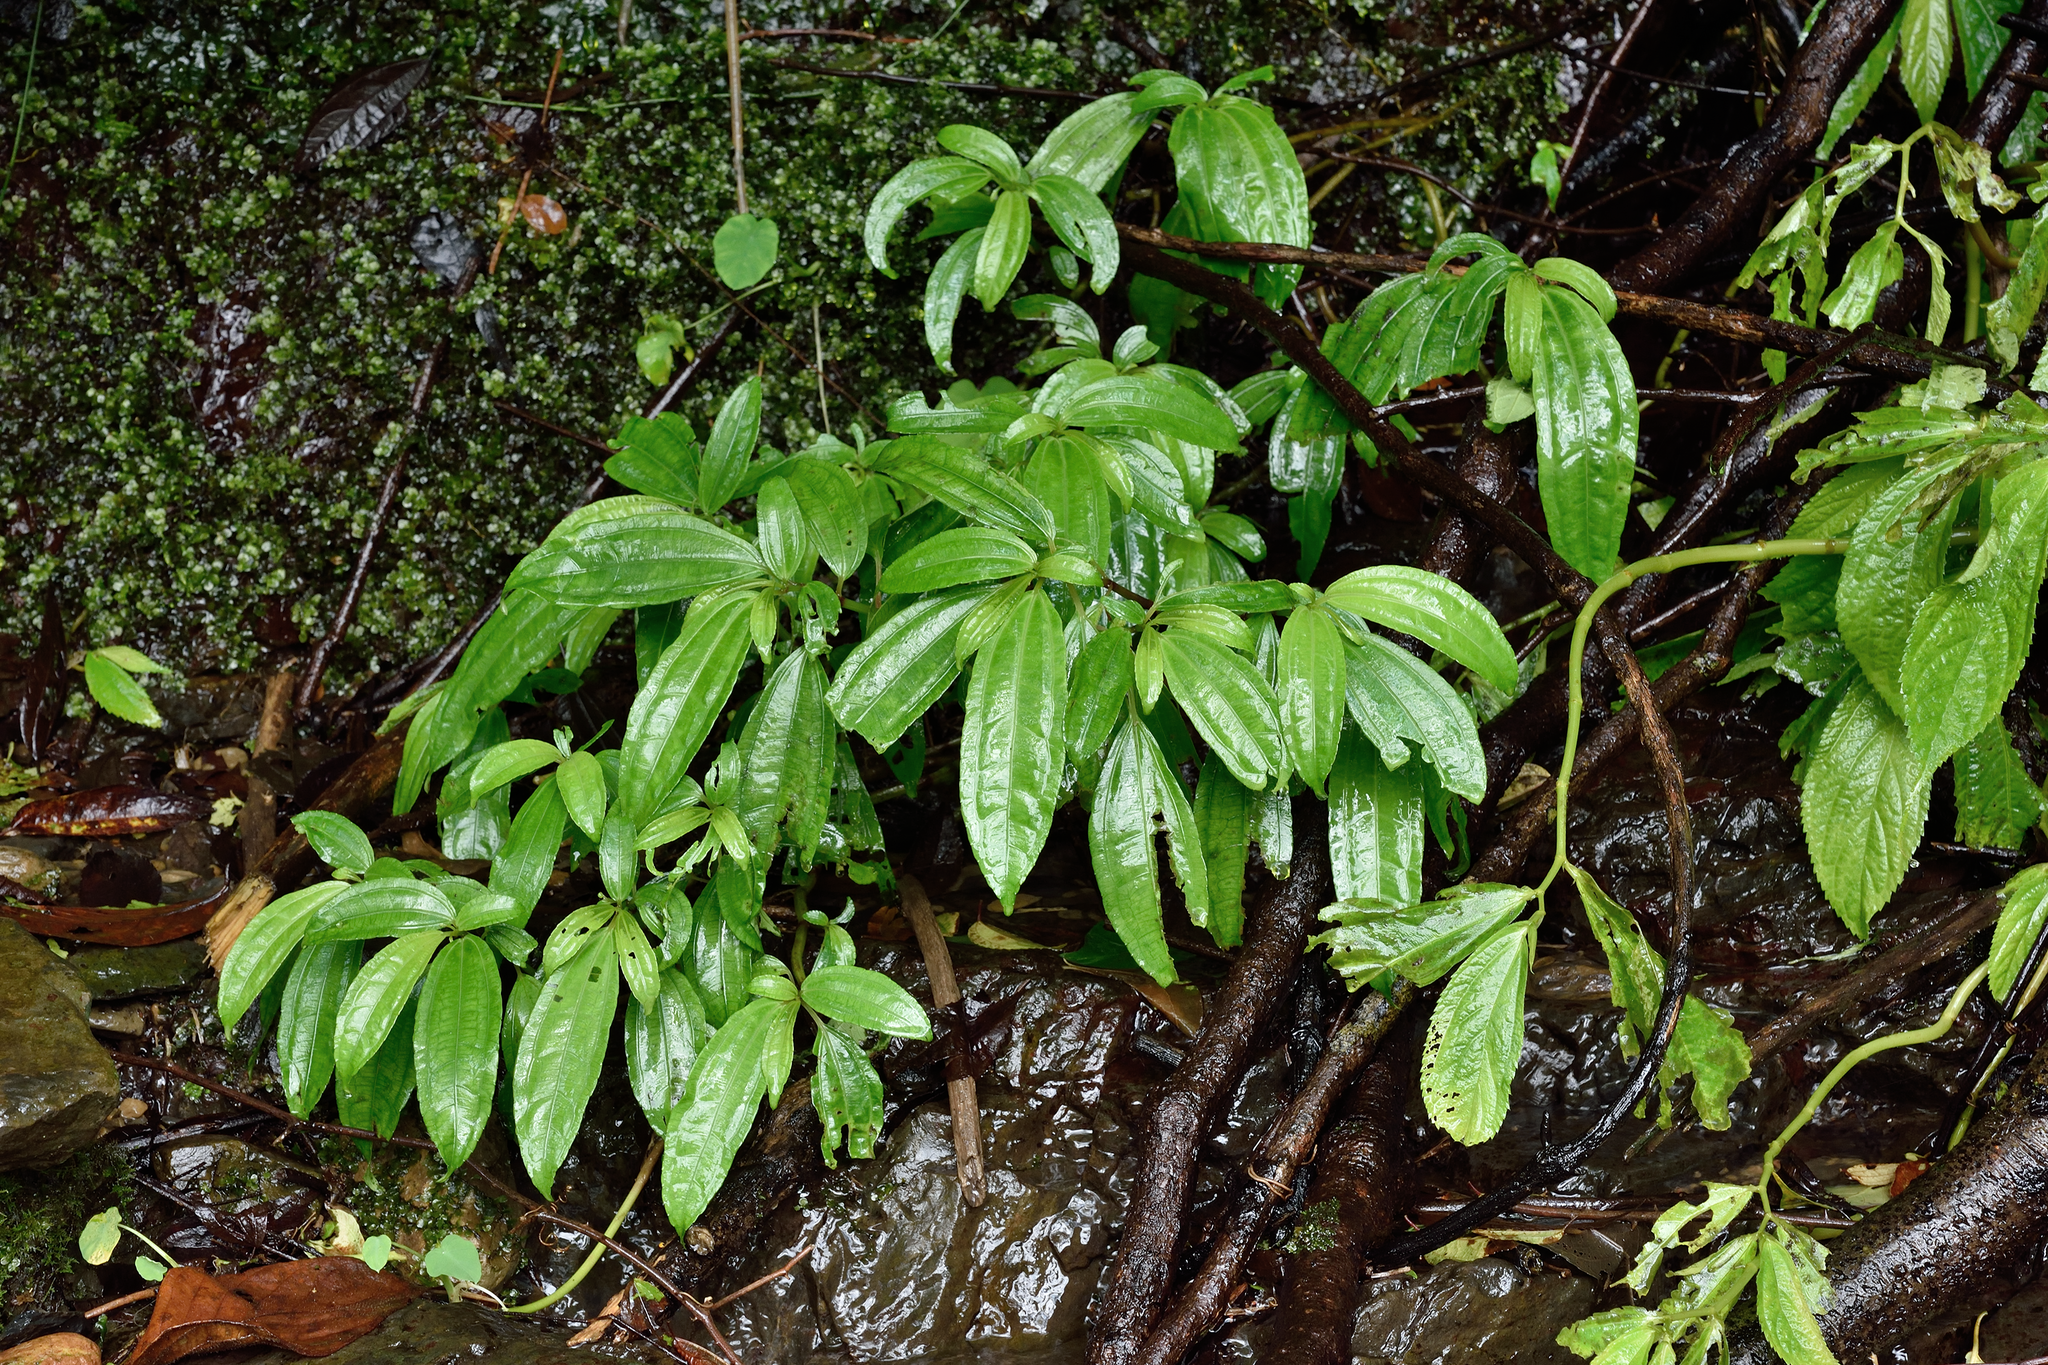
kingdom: Plantae
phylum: Tracheophyta
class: Magnoliopsida
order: Rosales
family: Urticaceae
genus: Pilea
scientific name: Pilea rotundinucula
